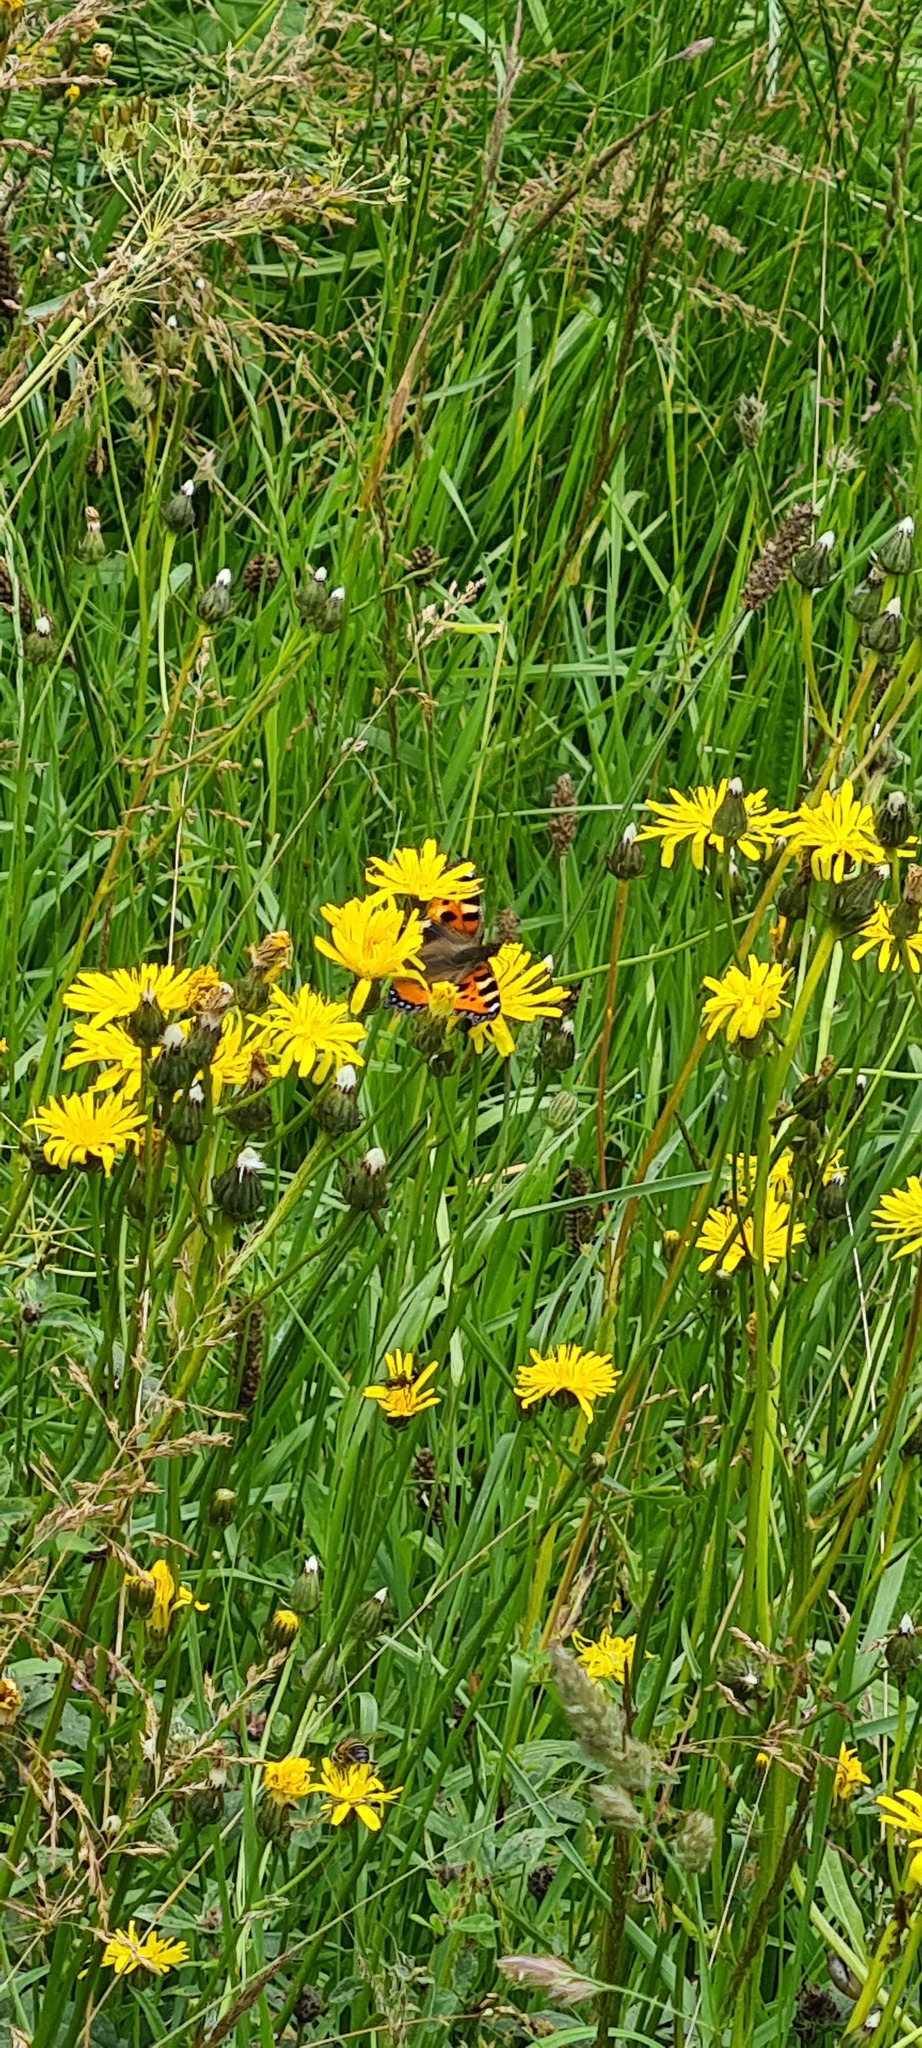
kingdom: Animalia
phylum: Arthropoda
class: Insecta
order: Lepidoptera
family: Nymphalidae
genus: Aglais
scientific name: Aglais urticae
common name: Small tortoiseshell
